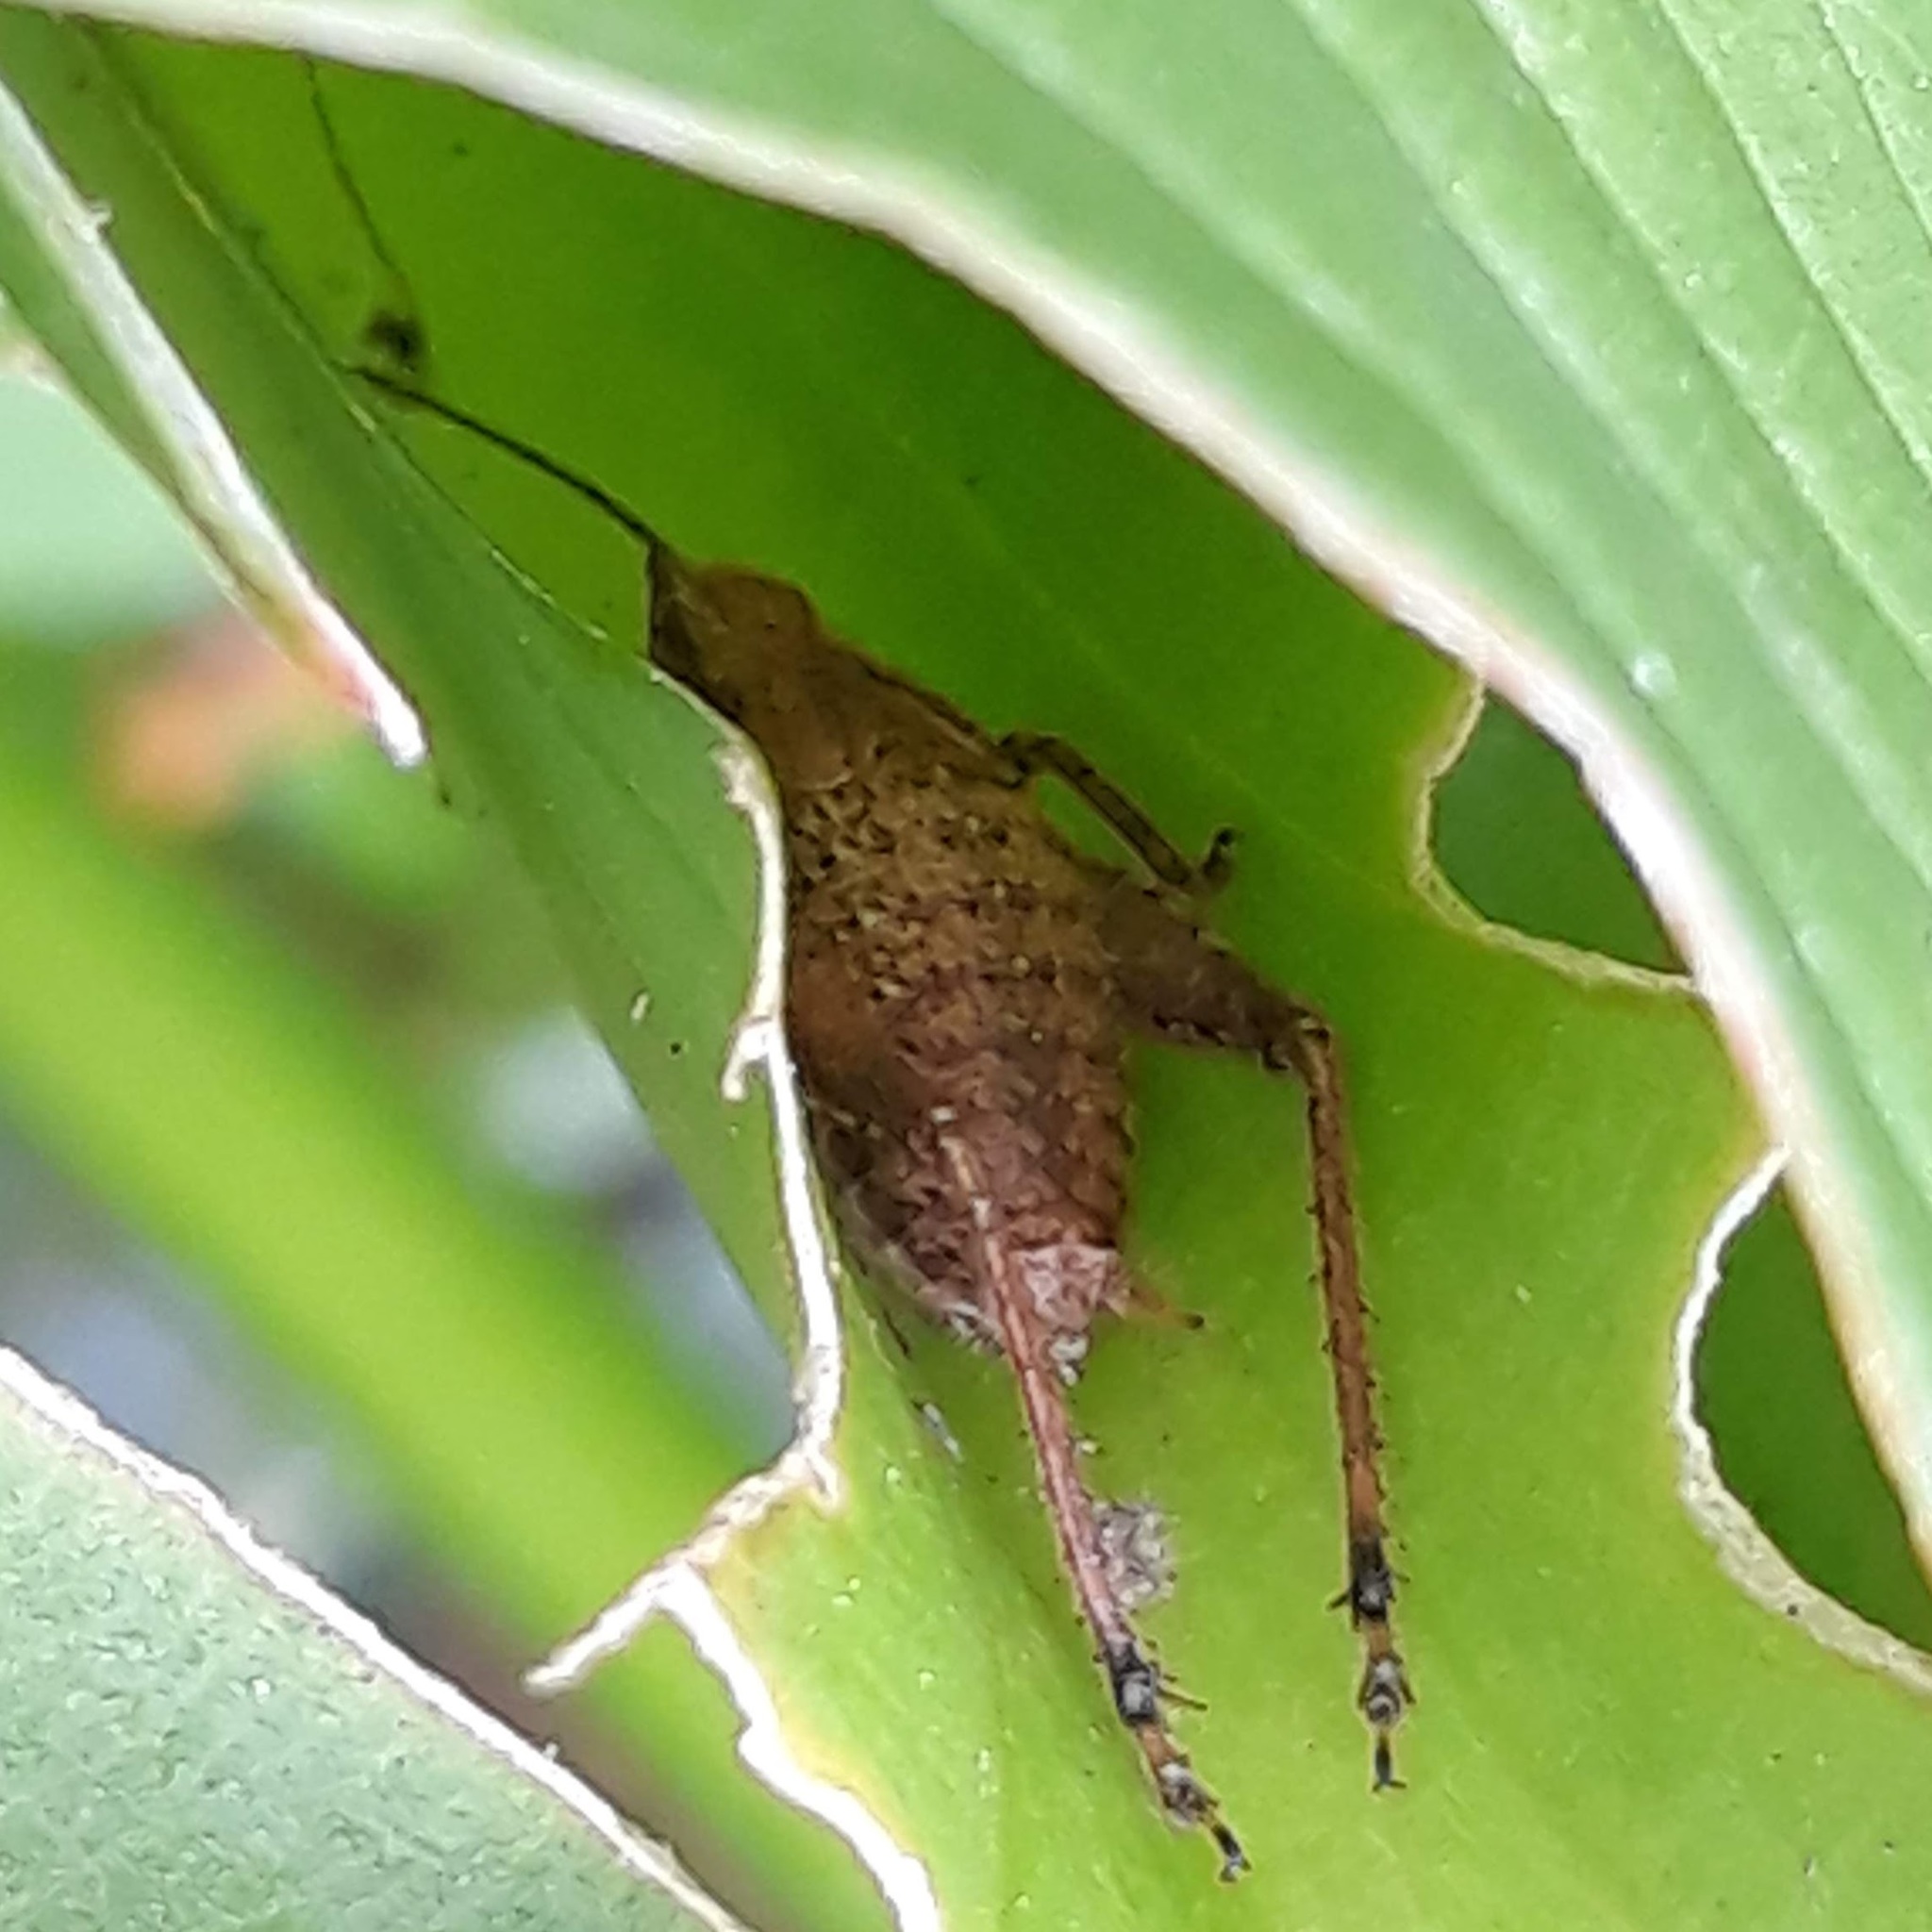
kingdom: Animalia
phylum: Arthropoda
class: Insecta
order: Orthoptera
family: Gryllidae
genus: Hapithus
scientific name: Hapithus agitator
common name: Restless bush cricket
